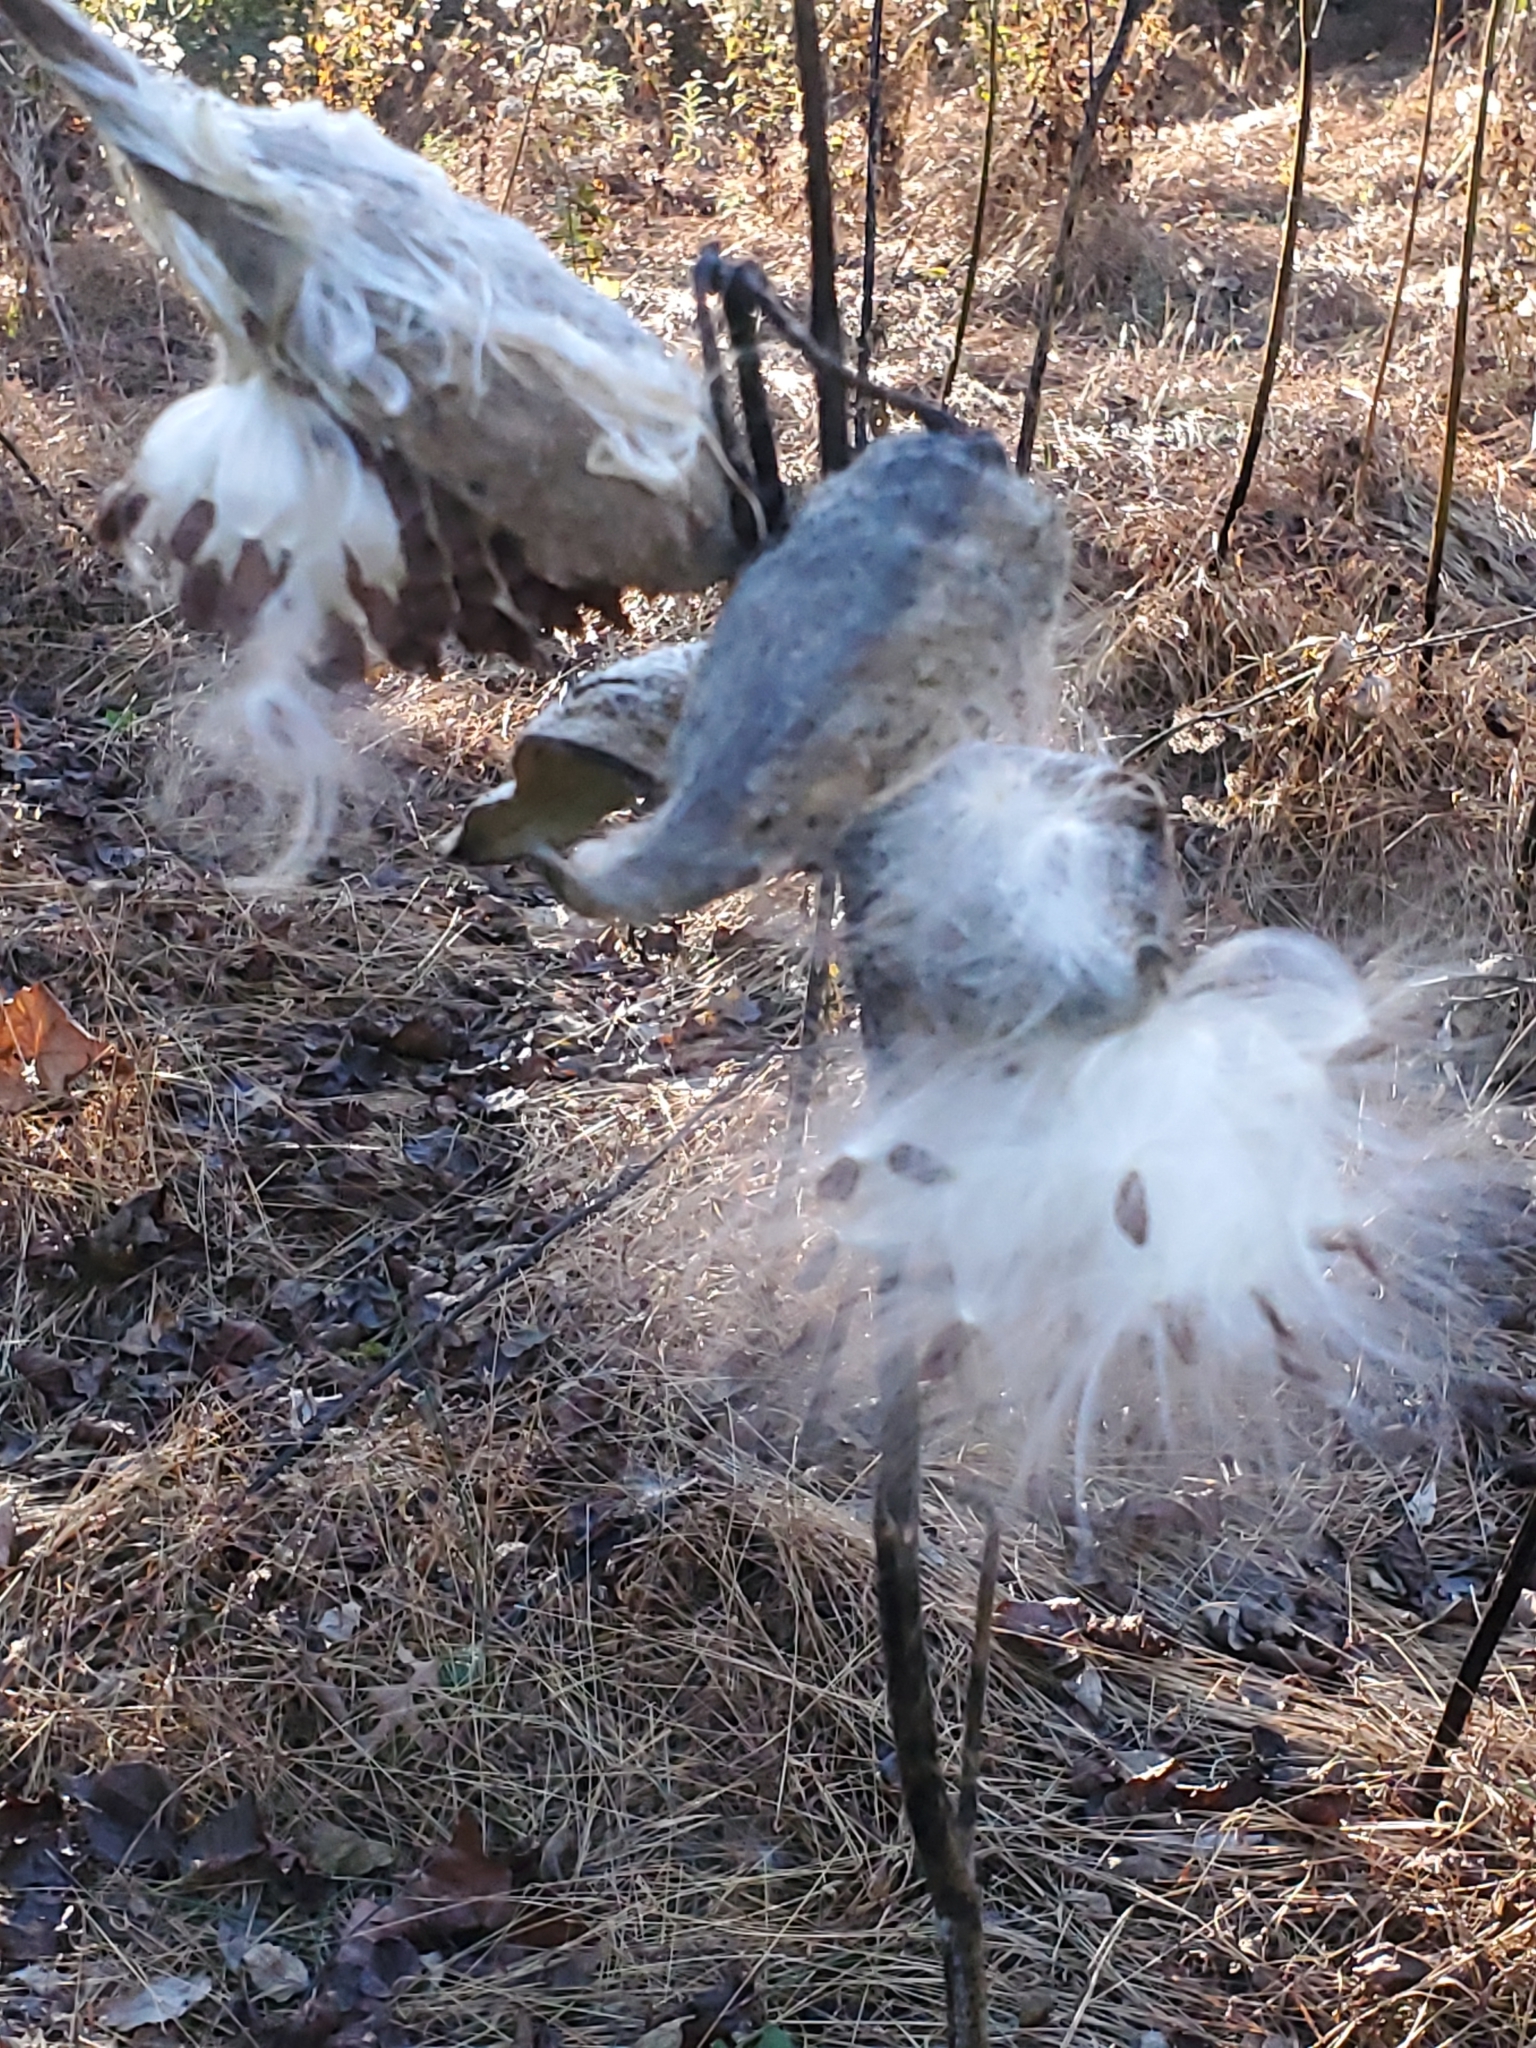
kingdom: Plantae
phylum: Tracheophyta
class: Magnoliopsida
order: Gentianales
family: Apocynaceae
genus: Asclepias
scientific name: Asclepias syriaca
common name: Common milkweed
